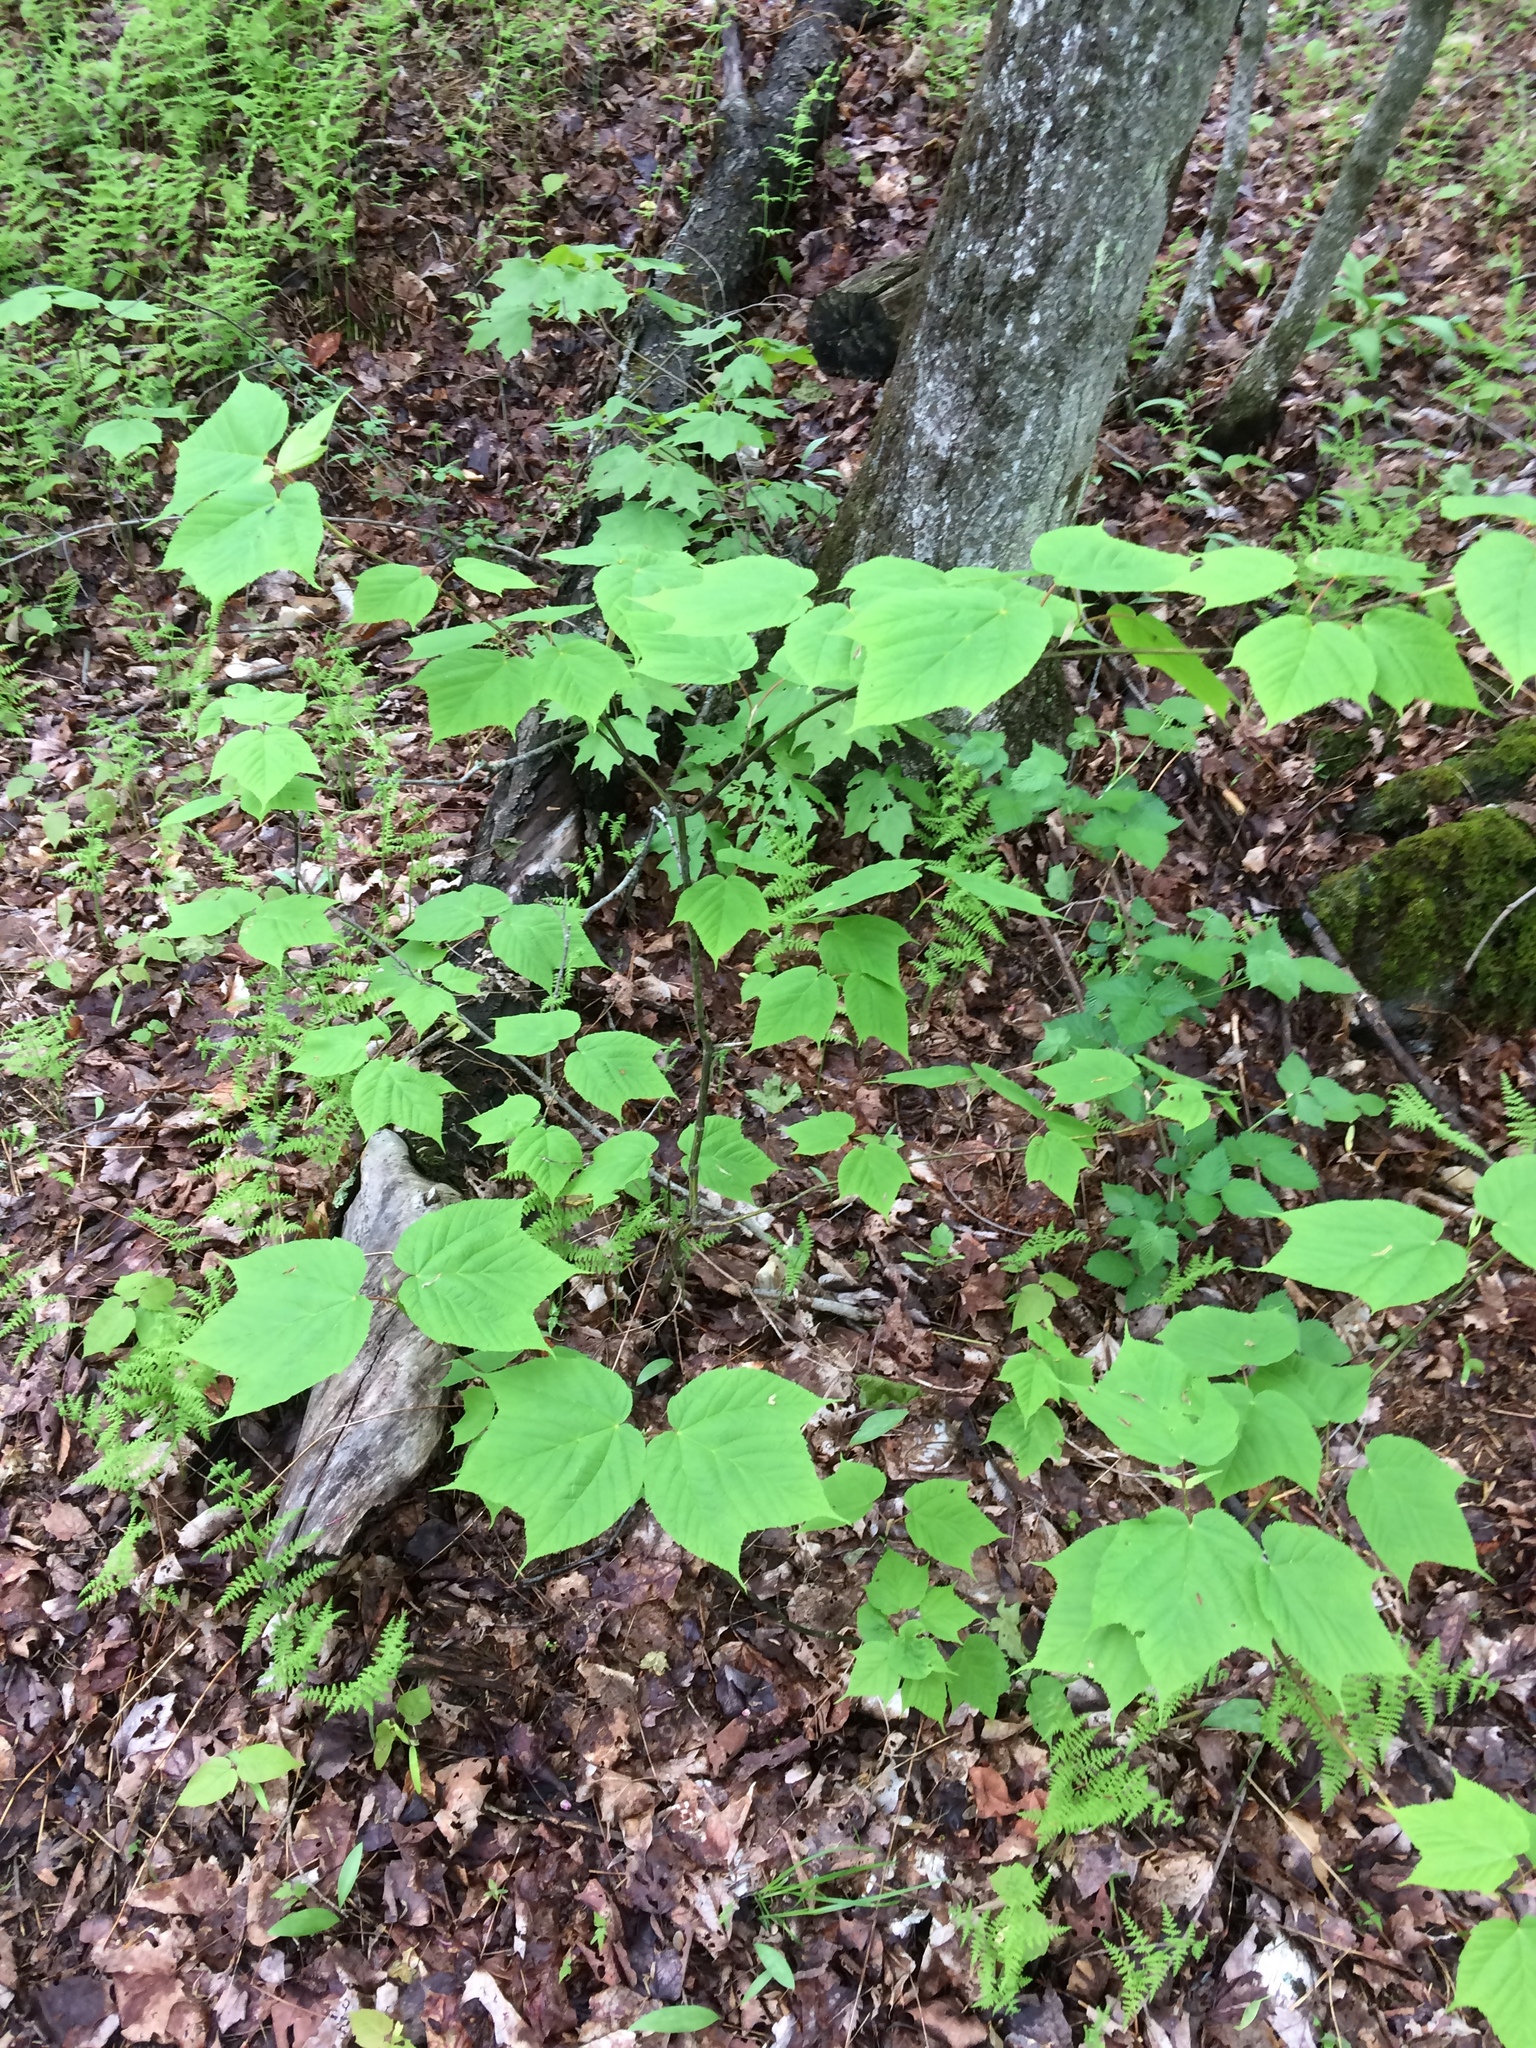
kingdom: Plantae
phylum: Tracheophyta
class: Magnoliopsida
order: Sapindales
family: Sapindaceae
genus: Acer
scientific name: Acer pensylvanicum
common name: Moosewood
